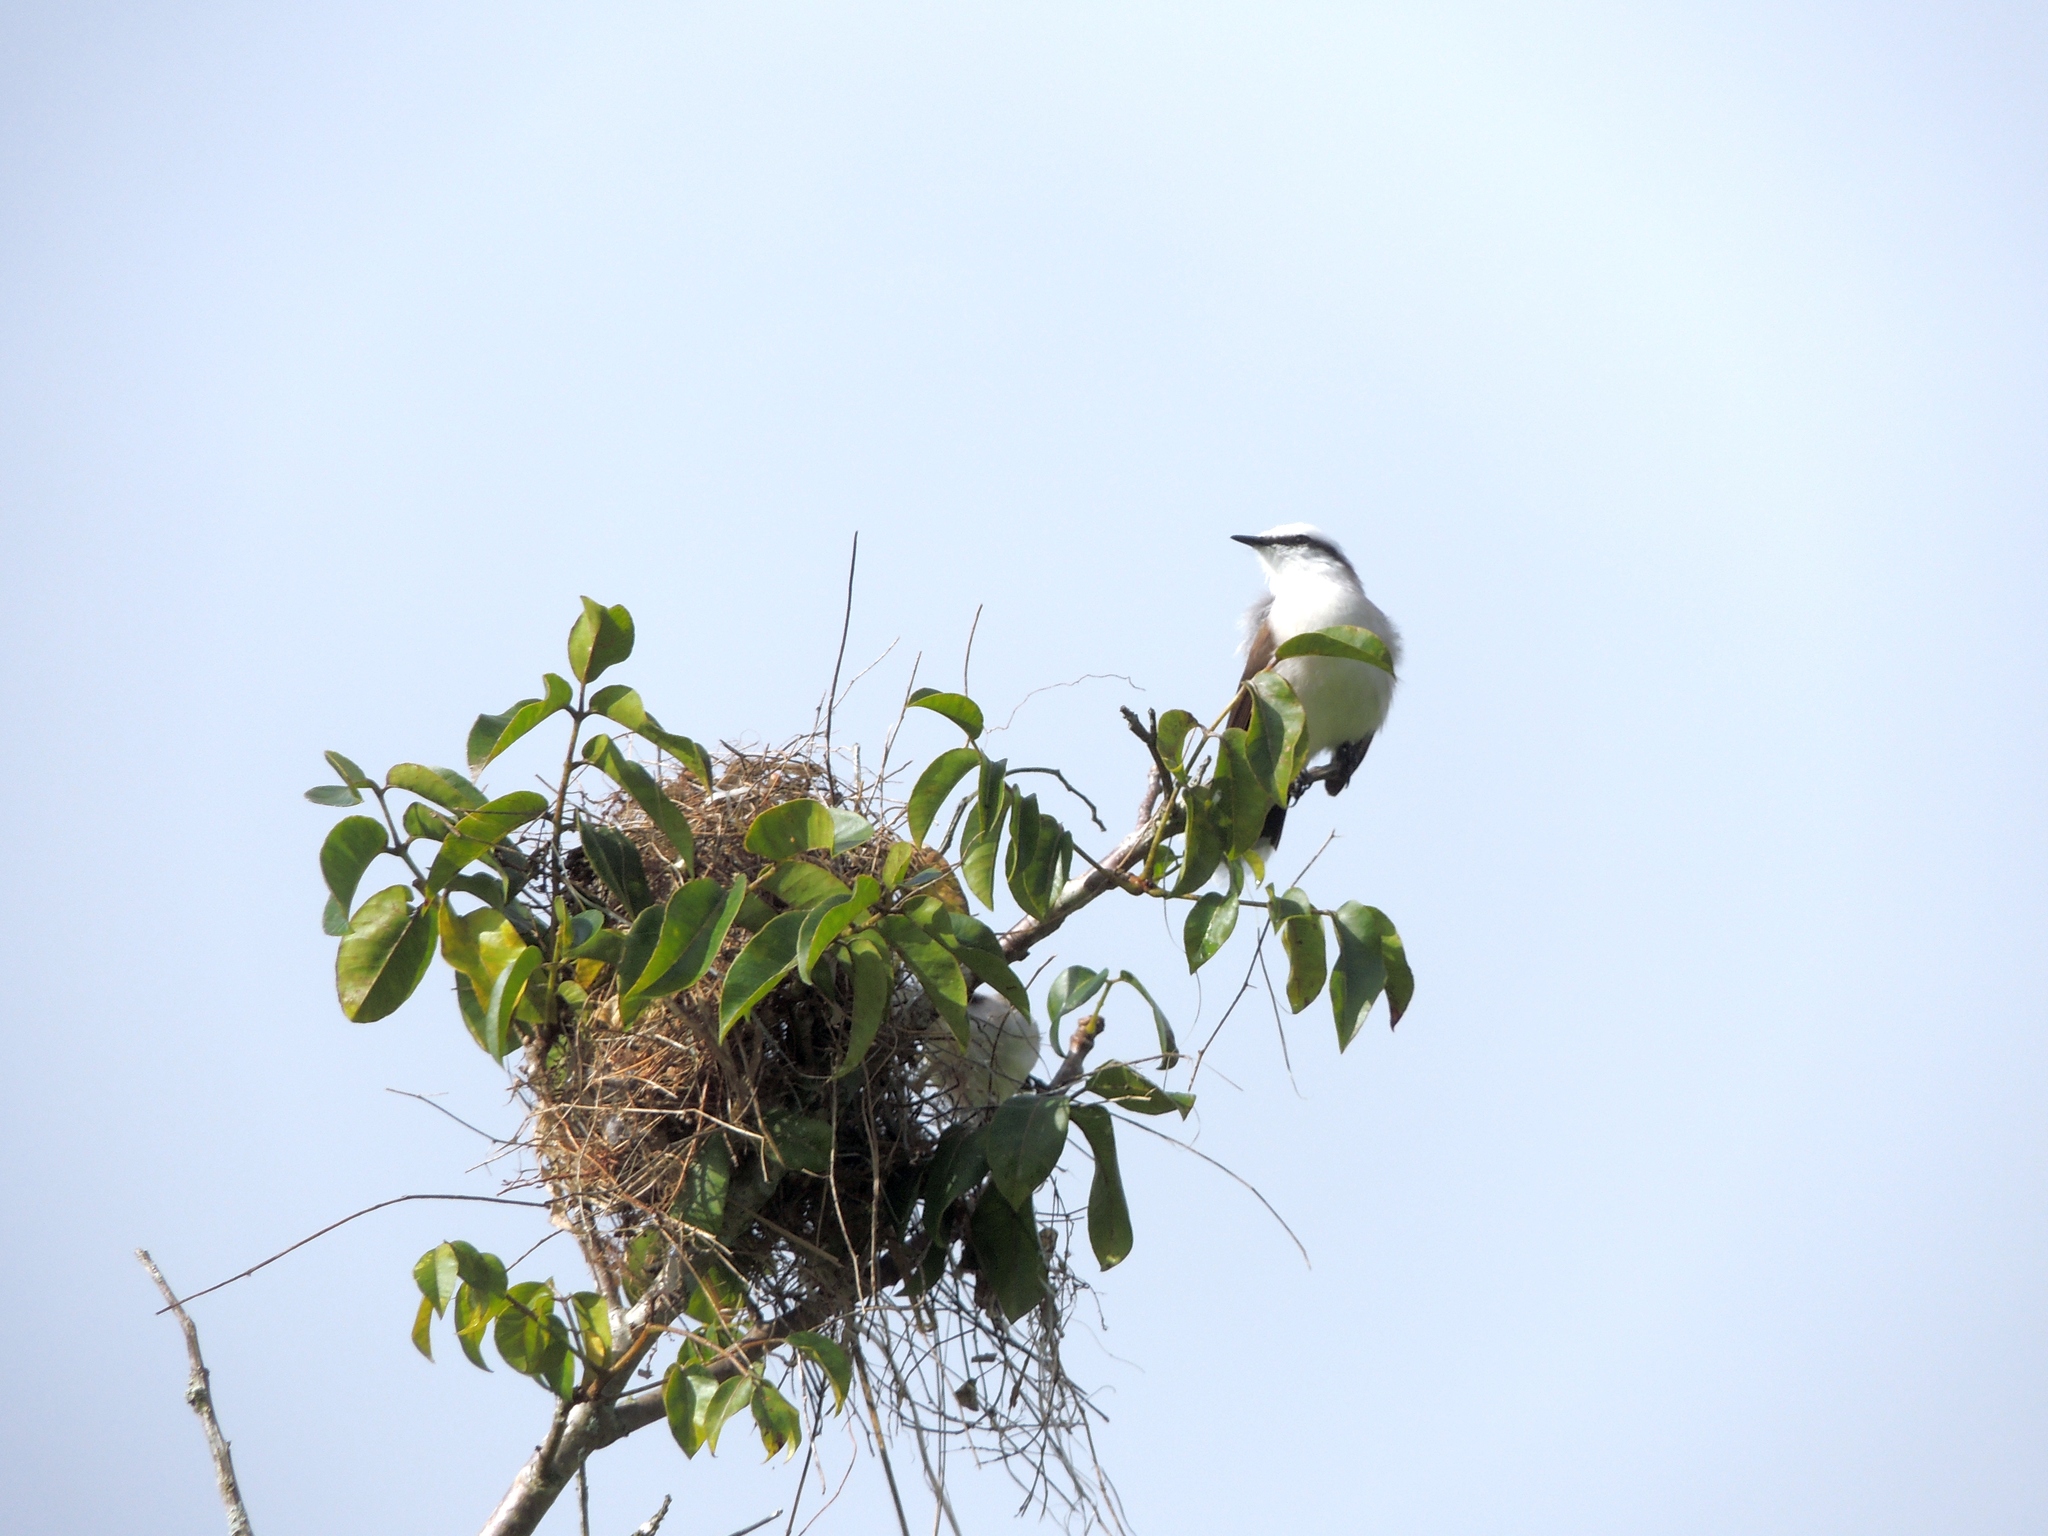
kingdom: Animalia
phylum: Chordata
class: Aves
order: Passeriformes
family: Tyrannidae
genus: Fluvicola
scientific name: Fluvicola nengeta
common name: Masked water tyrant
